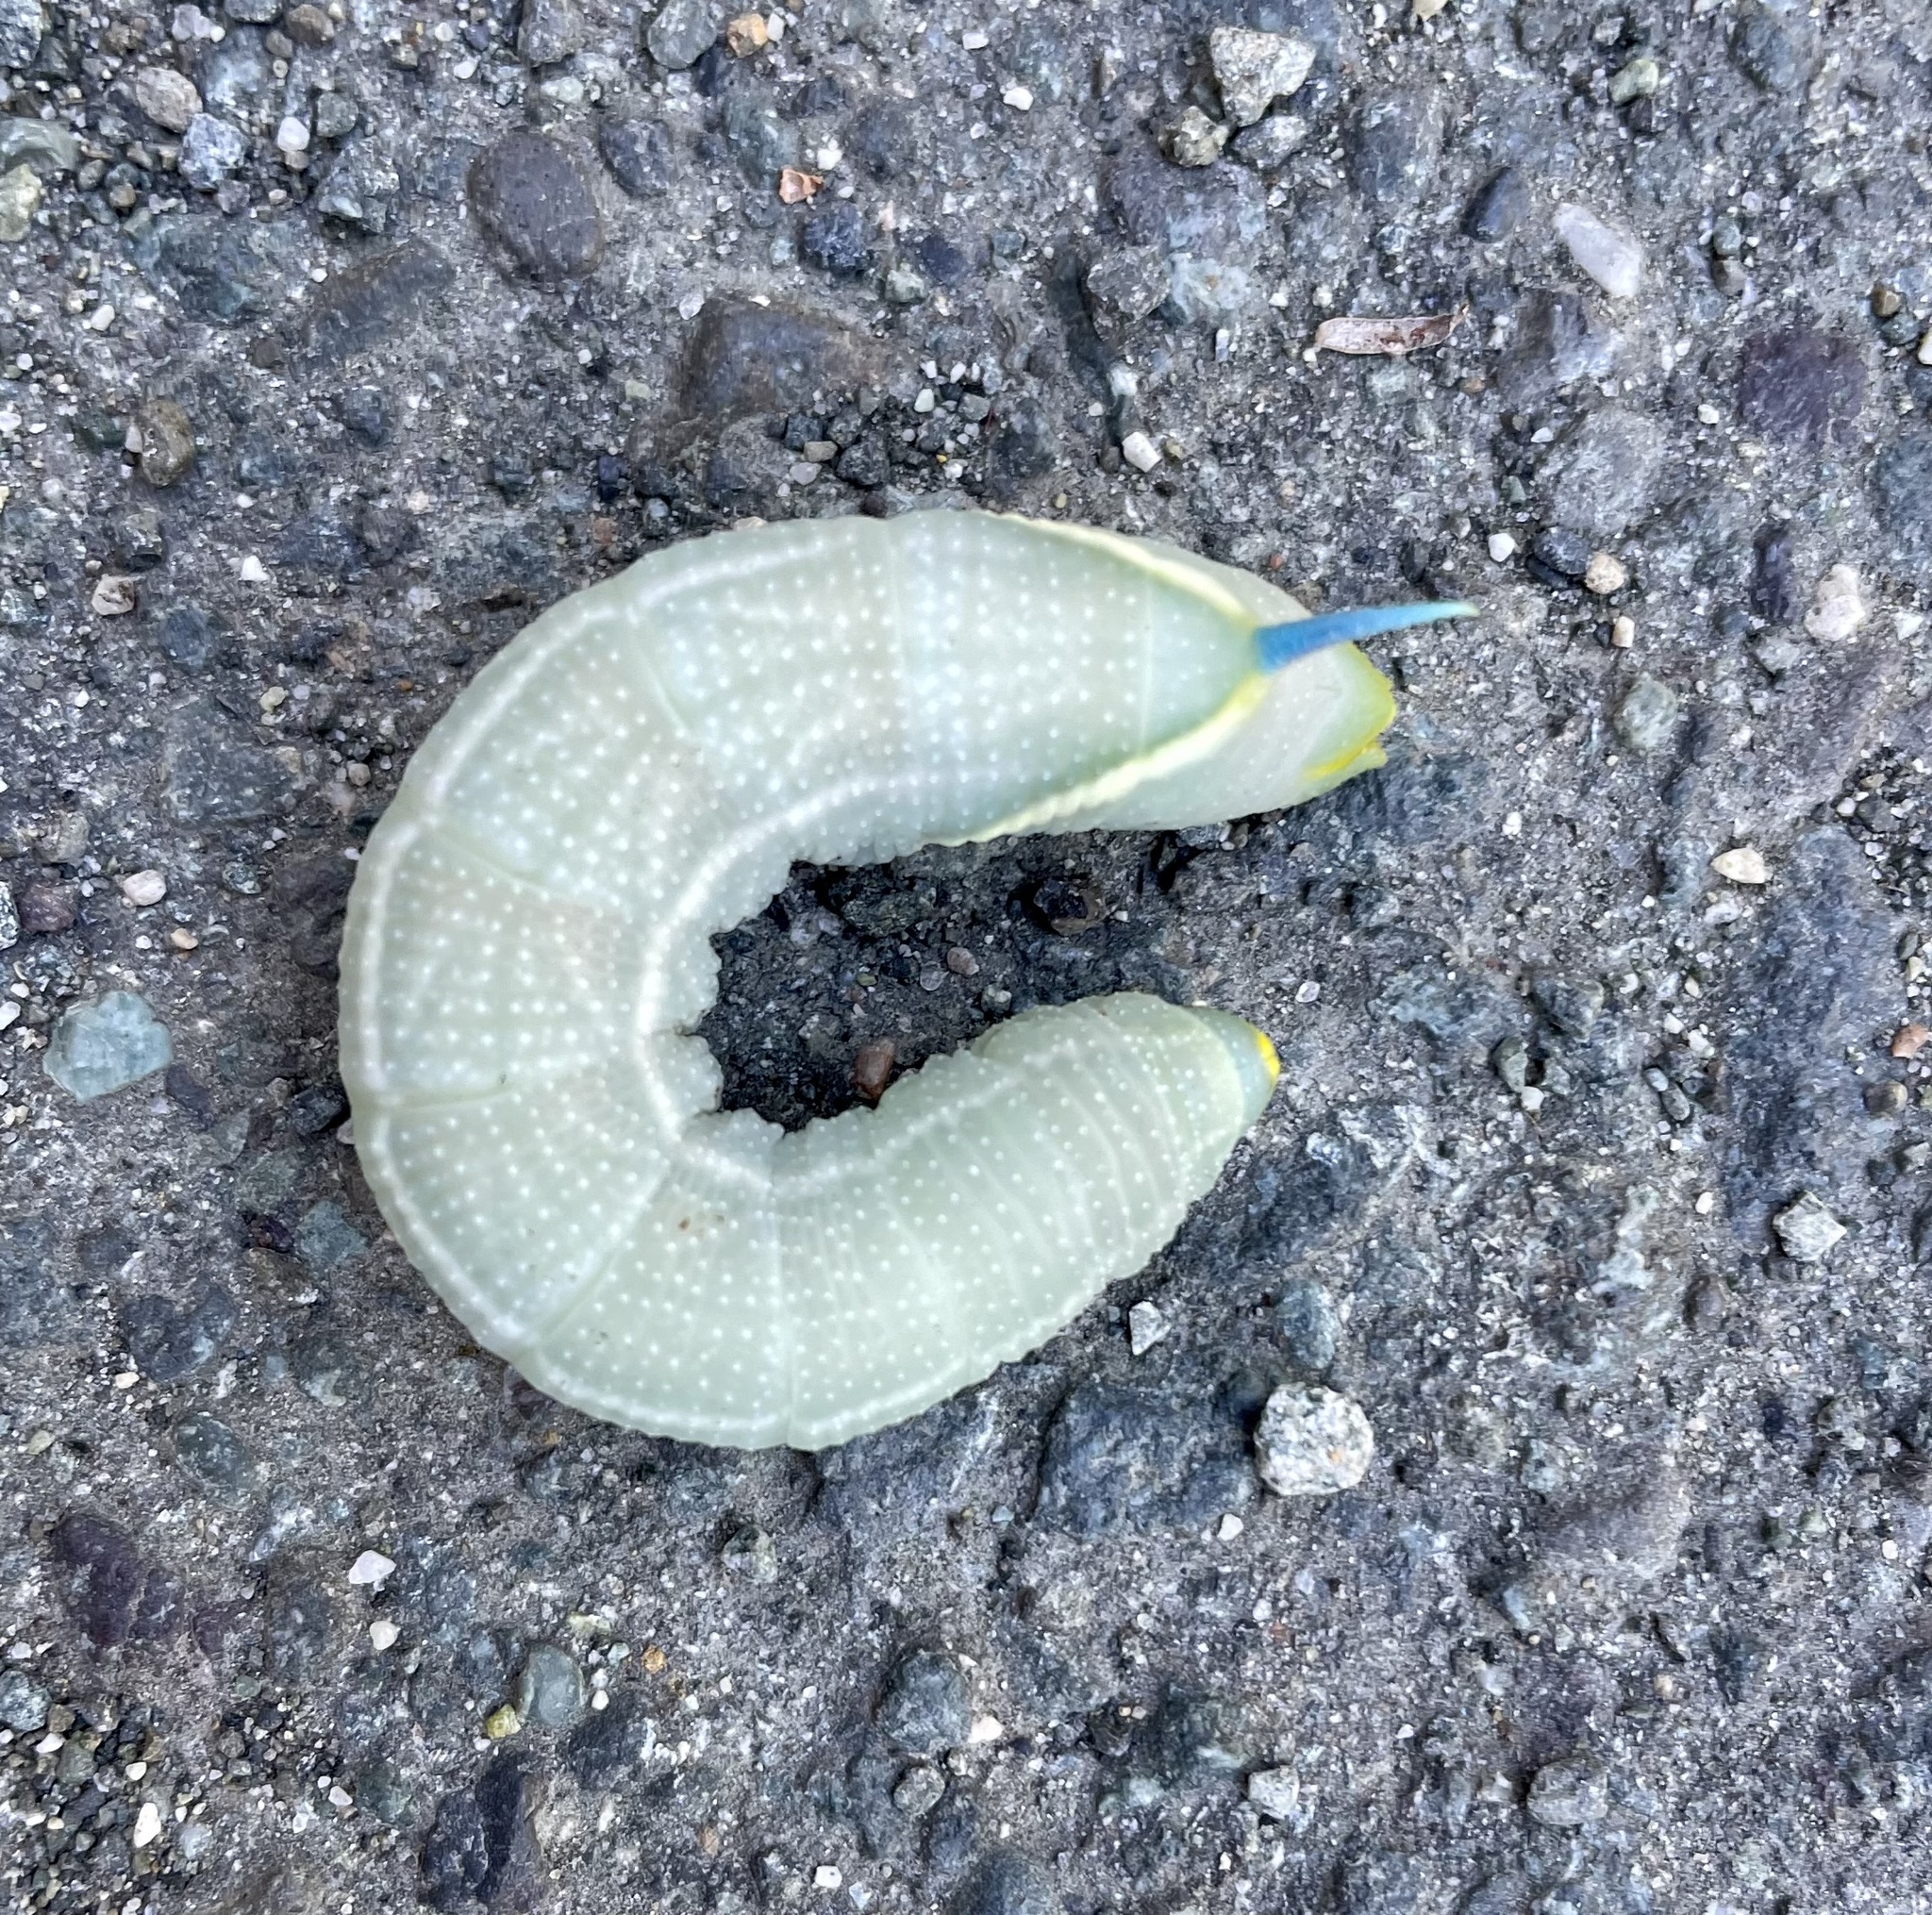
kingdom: Animalia
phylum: Arthropoda
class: Insecta
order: Lepidoptera
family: Sphingidae
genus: Smerinthus
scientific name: Smerinthus cerisyi
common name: Cerisy's sphinx moth
